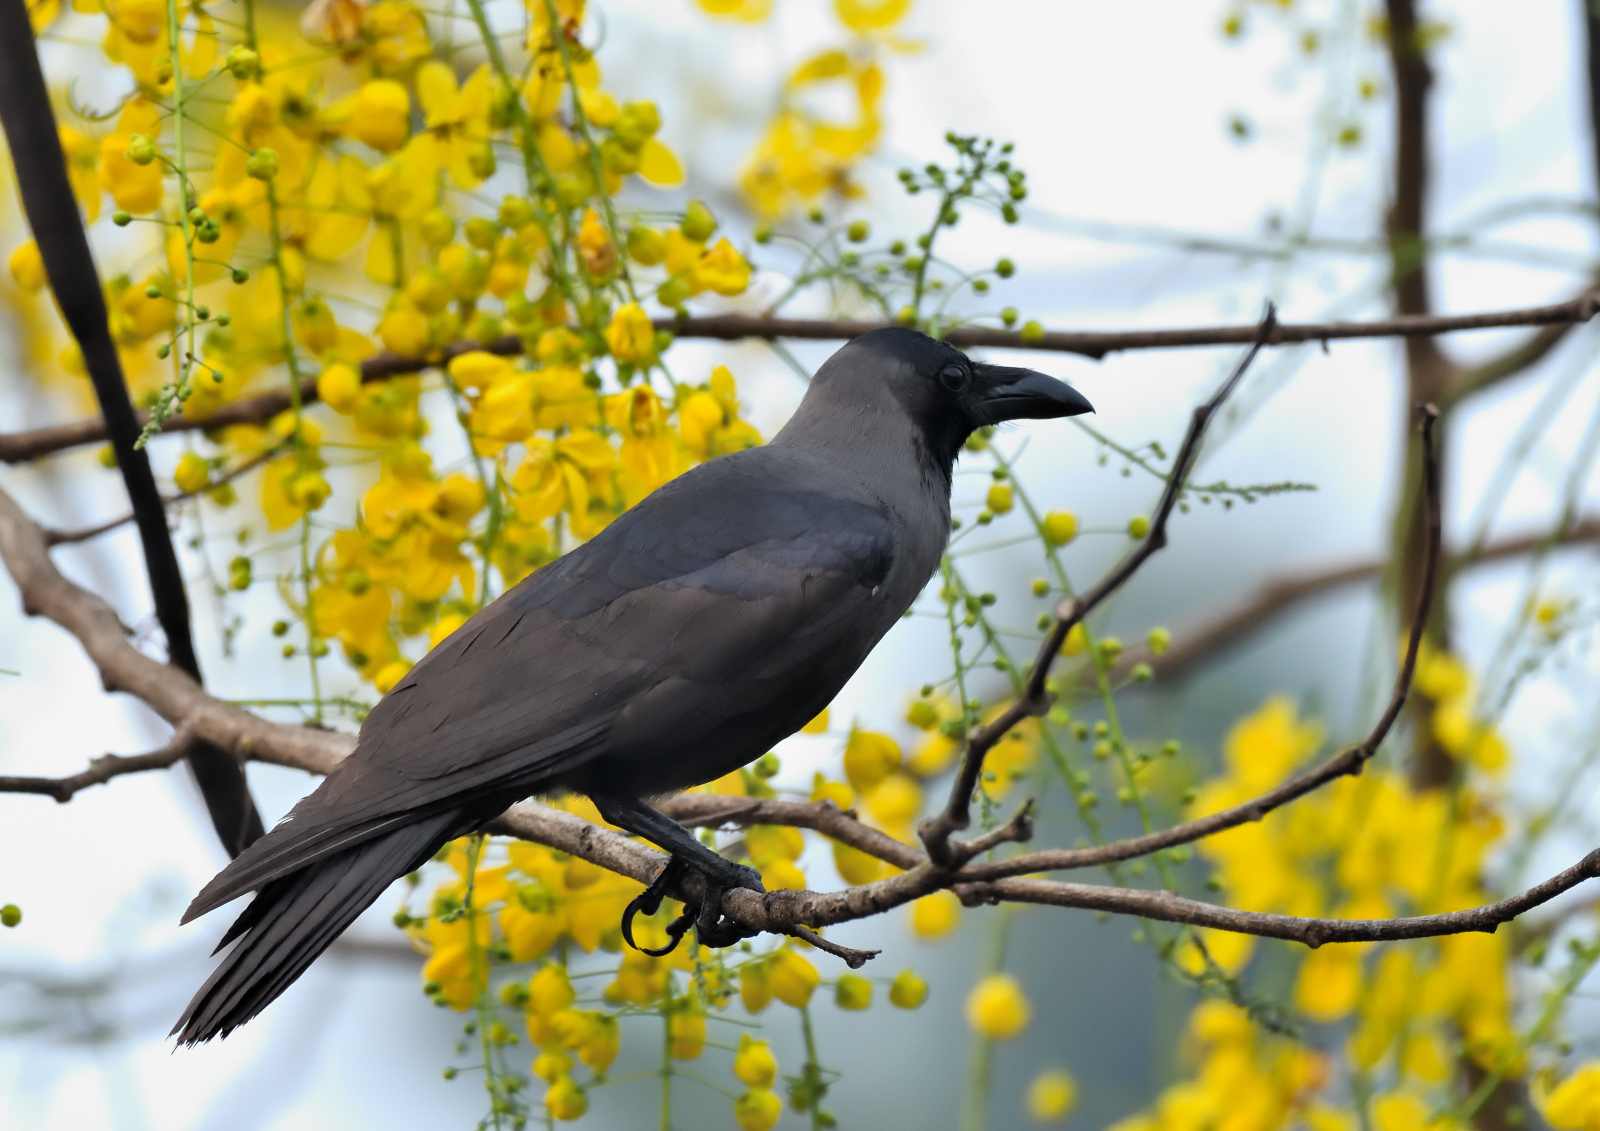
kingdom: Animalia
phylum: Chordata
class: Aves
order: Passeriformes
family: Corvidae
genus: Corvus
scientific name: Corvus splendens
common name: House crow
